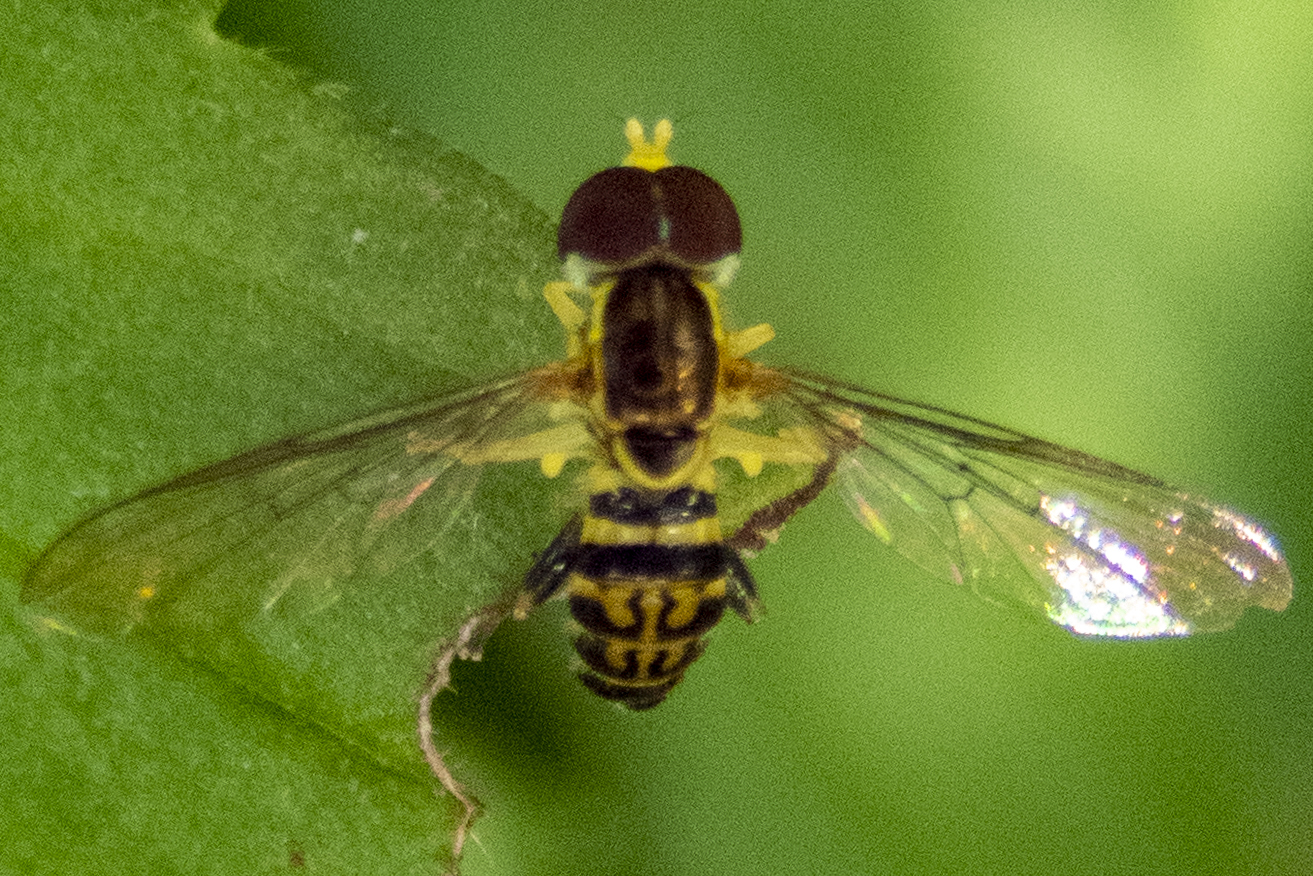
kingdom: Animalia
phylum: Arthropoda
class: Insecta
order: Diptera
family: Syrphidae
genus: Toxomerus
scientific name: Toxomerus geminatus
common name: Eastern calligrapher
